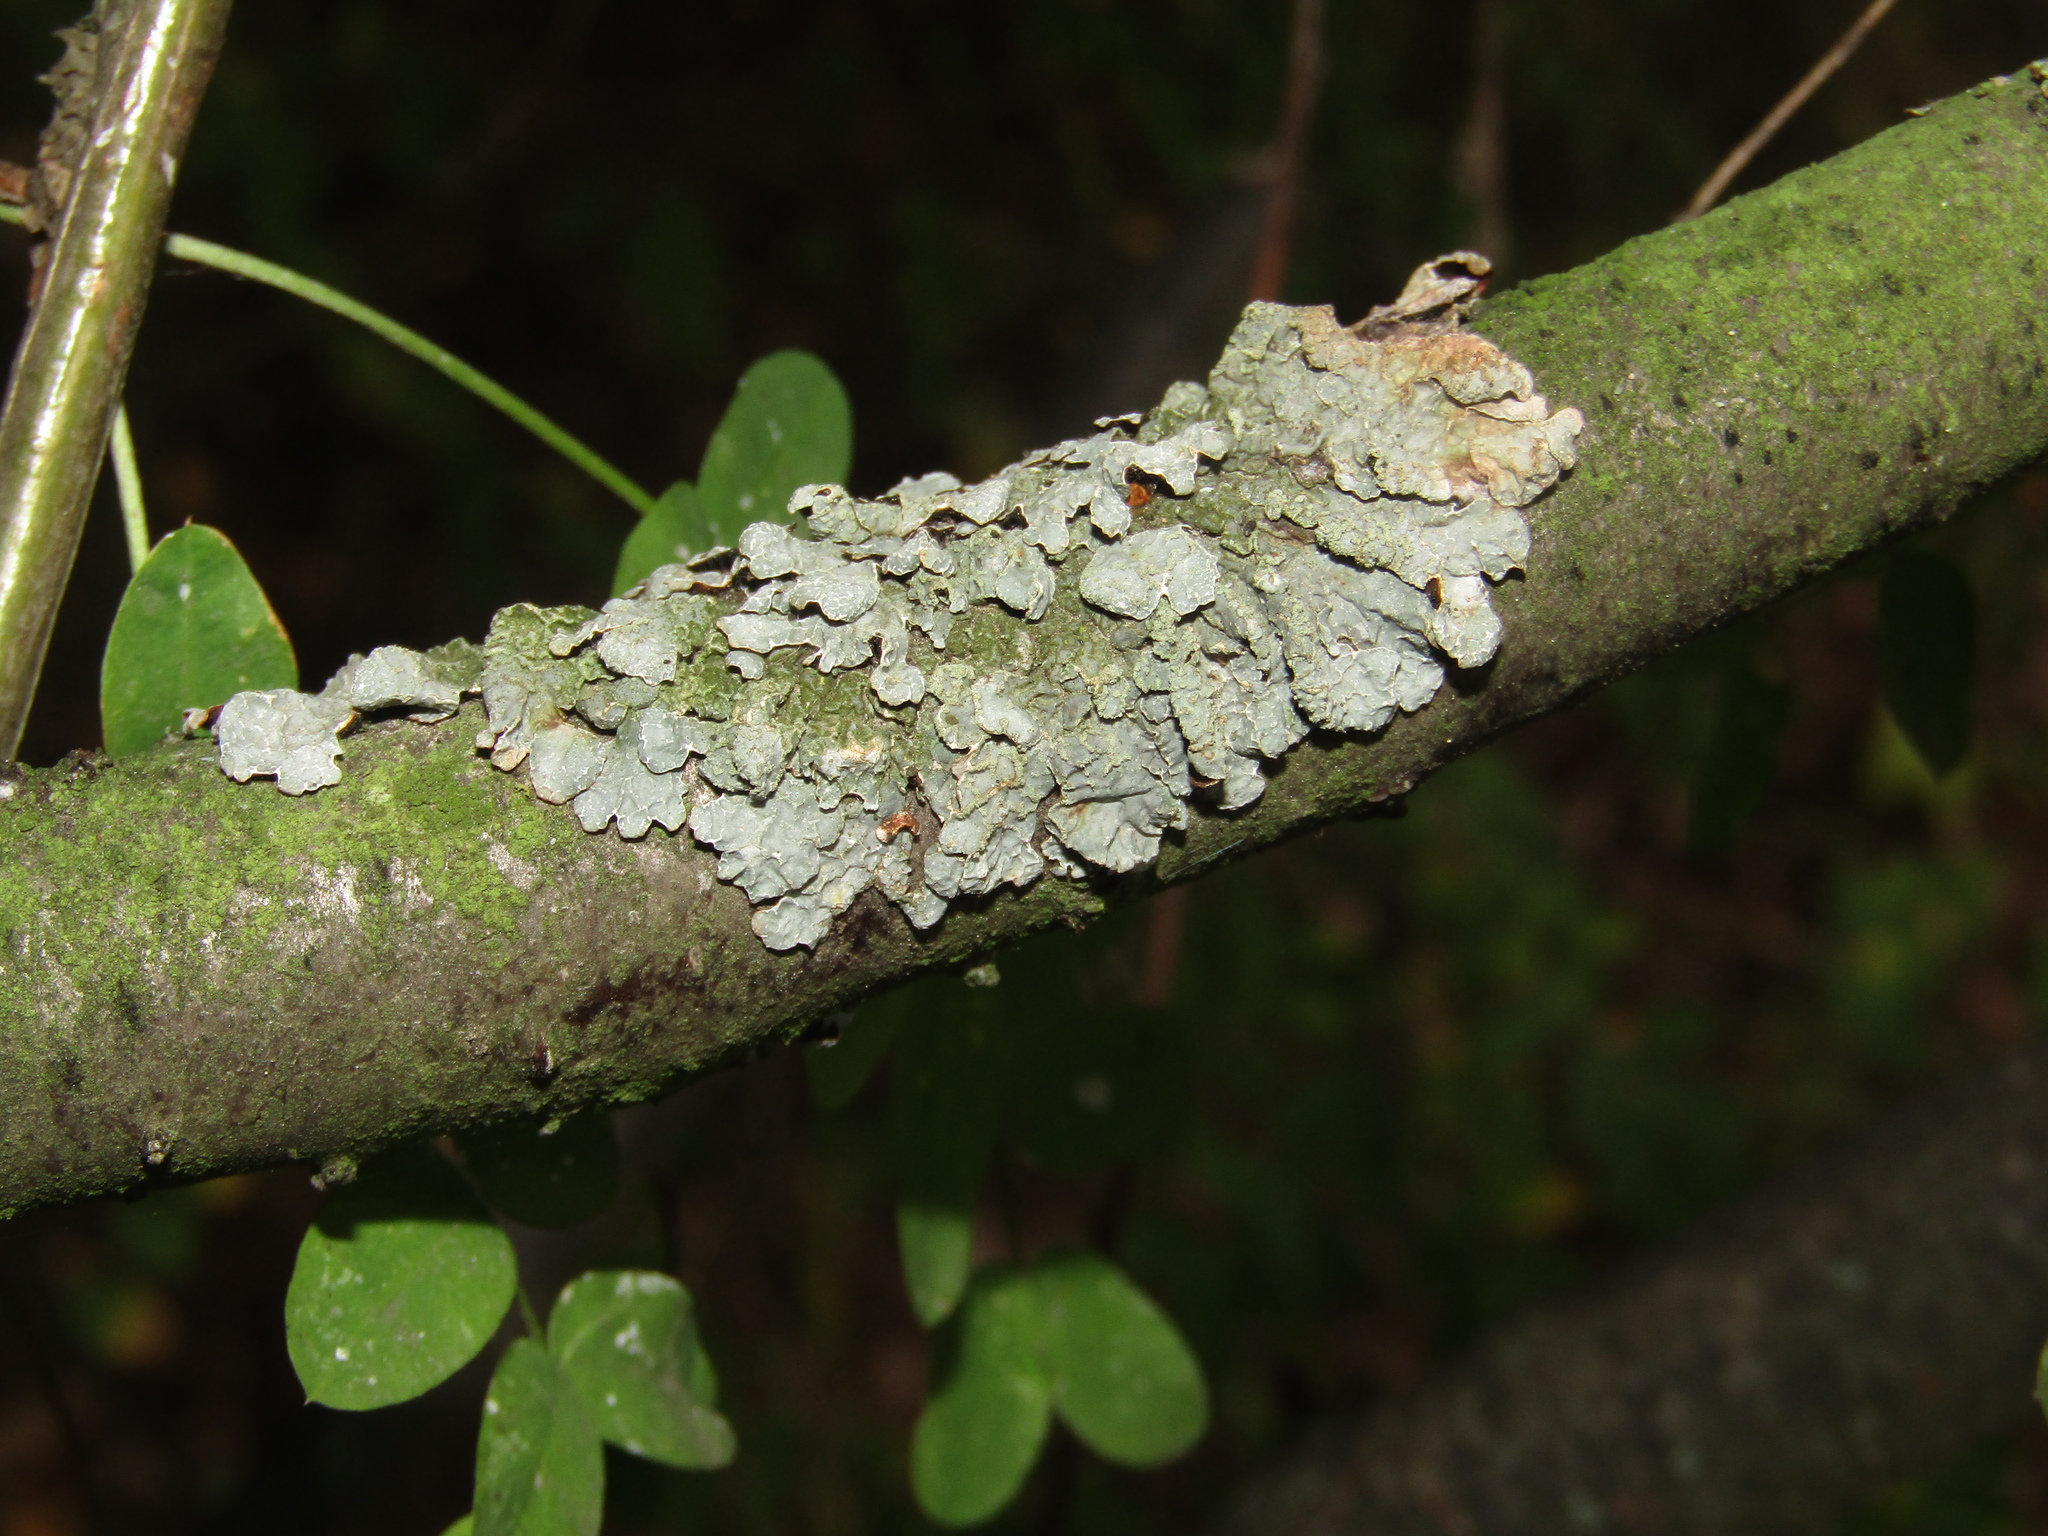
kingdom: Fungi
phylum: Ascomycota
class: Lecanoromycetes
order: Lecanorales
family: Parmeliaceae
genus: Parmelia
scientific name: Parmelia sulcata
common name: Netted shield lichen
